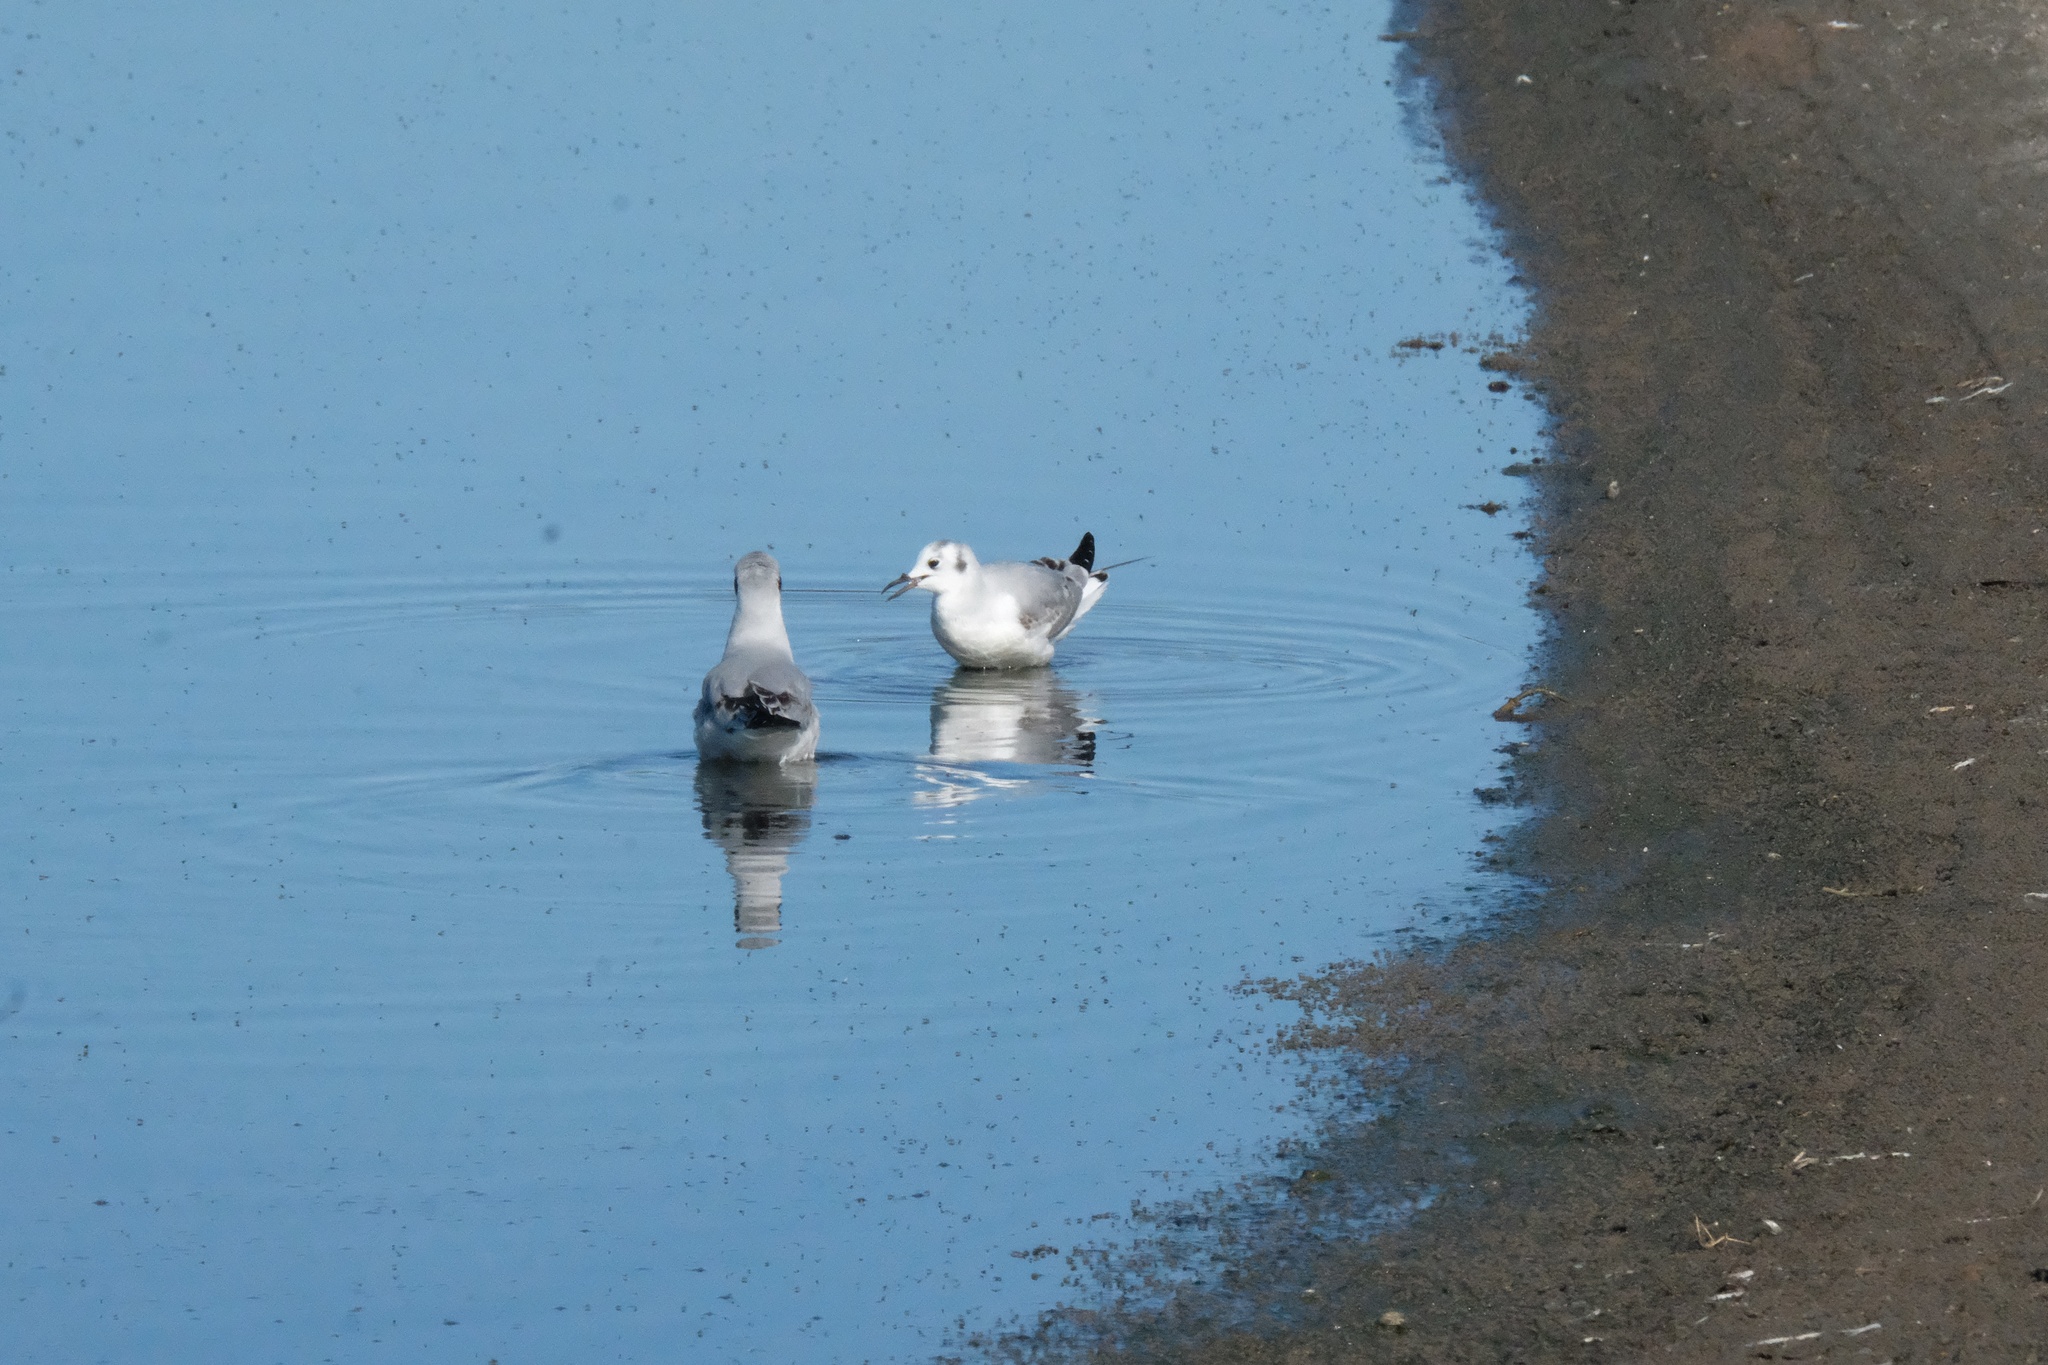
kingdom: Animalia
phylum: Chordata
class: Aves
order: Charadriiformes
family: Laridae
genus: Chroicocephalus
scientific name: Chroicocephalus philadelphia
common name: Bonaparte's gull
